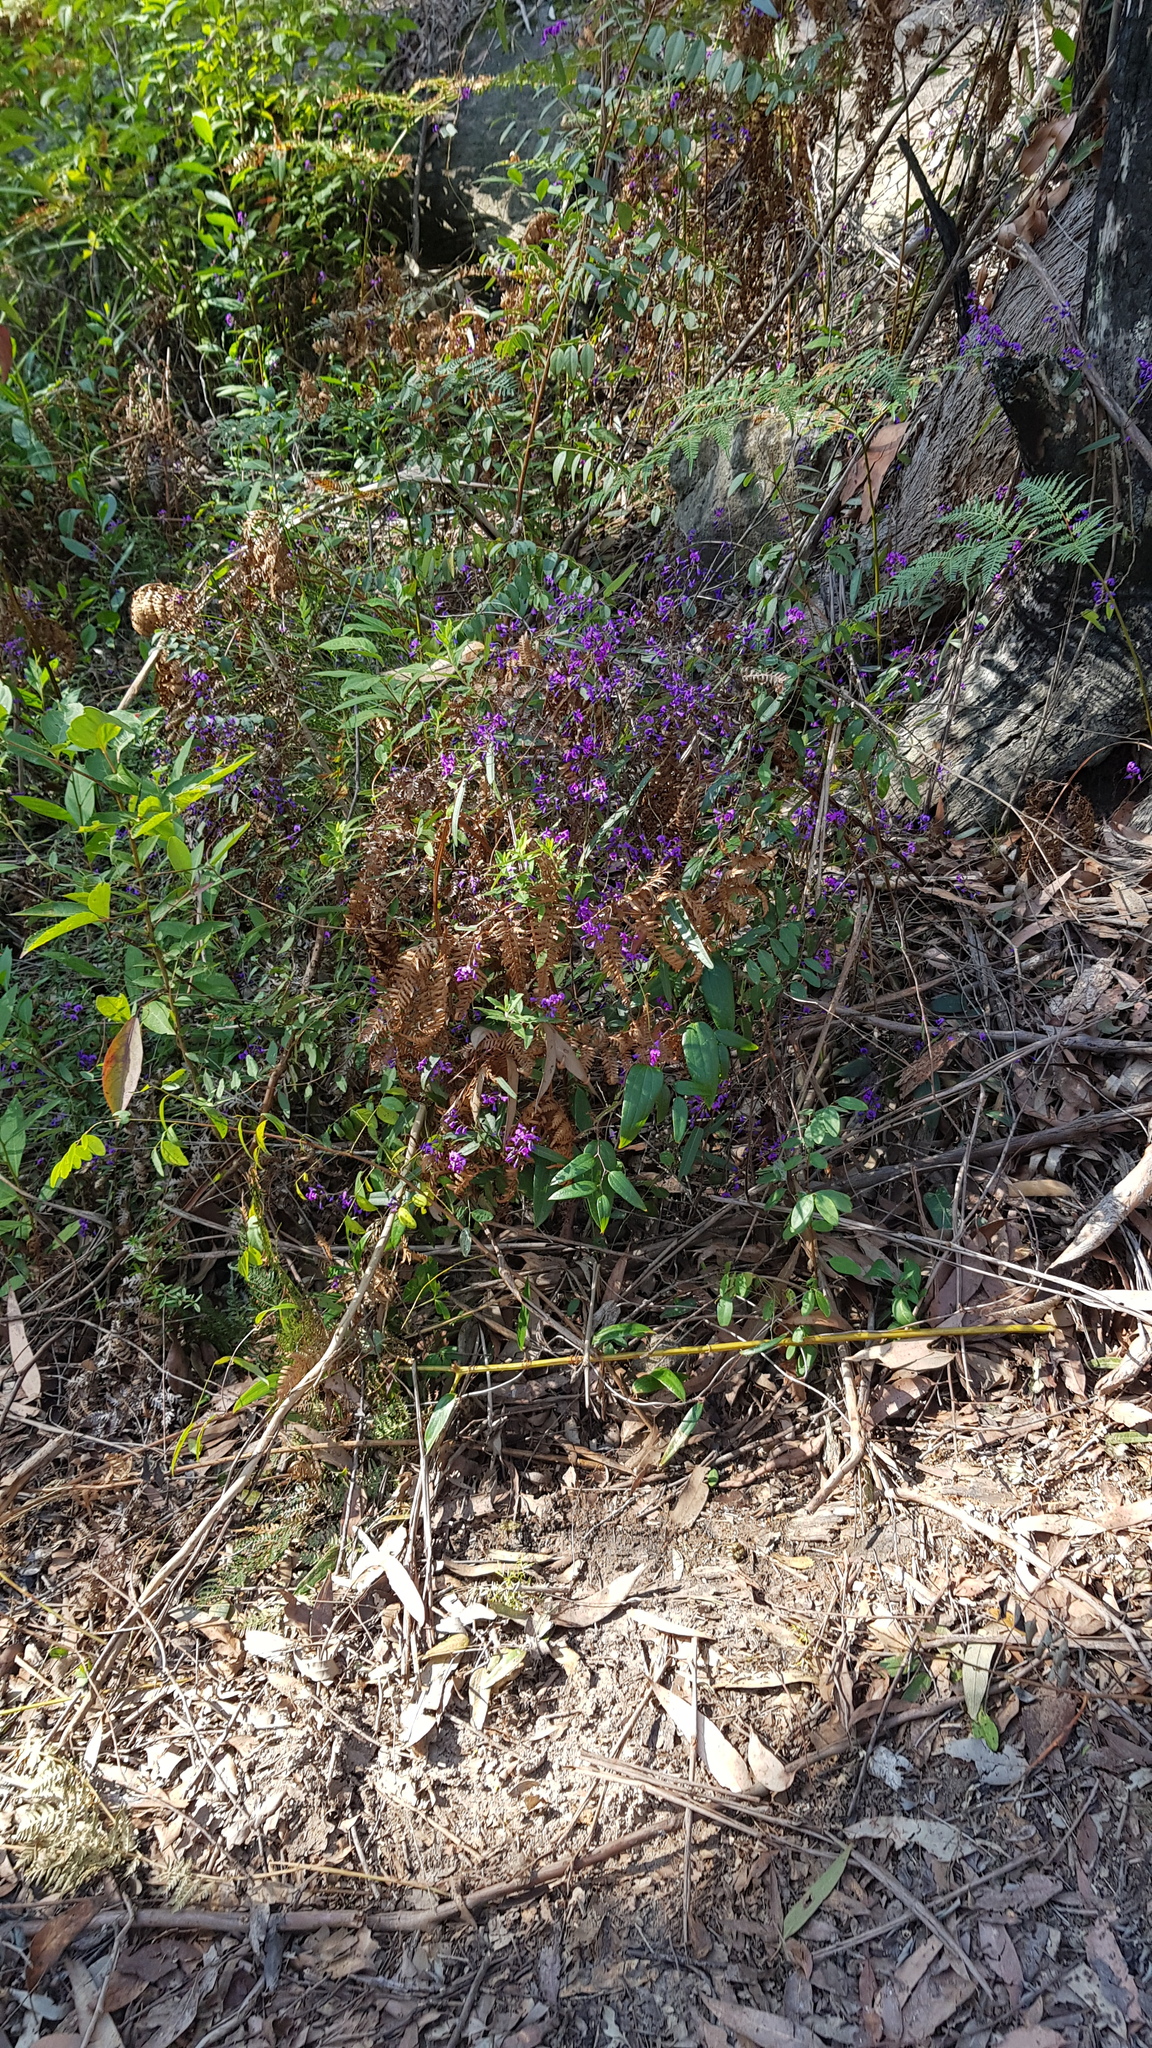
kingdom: Plantae
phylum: Tracheophyta
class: Liliopsida
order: Liliales
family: Smilacaceae
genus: Smilax
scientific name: Smilax glyciphylla
